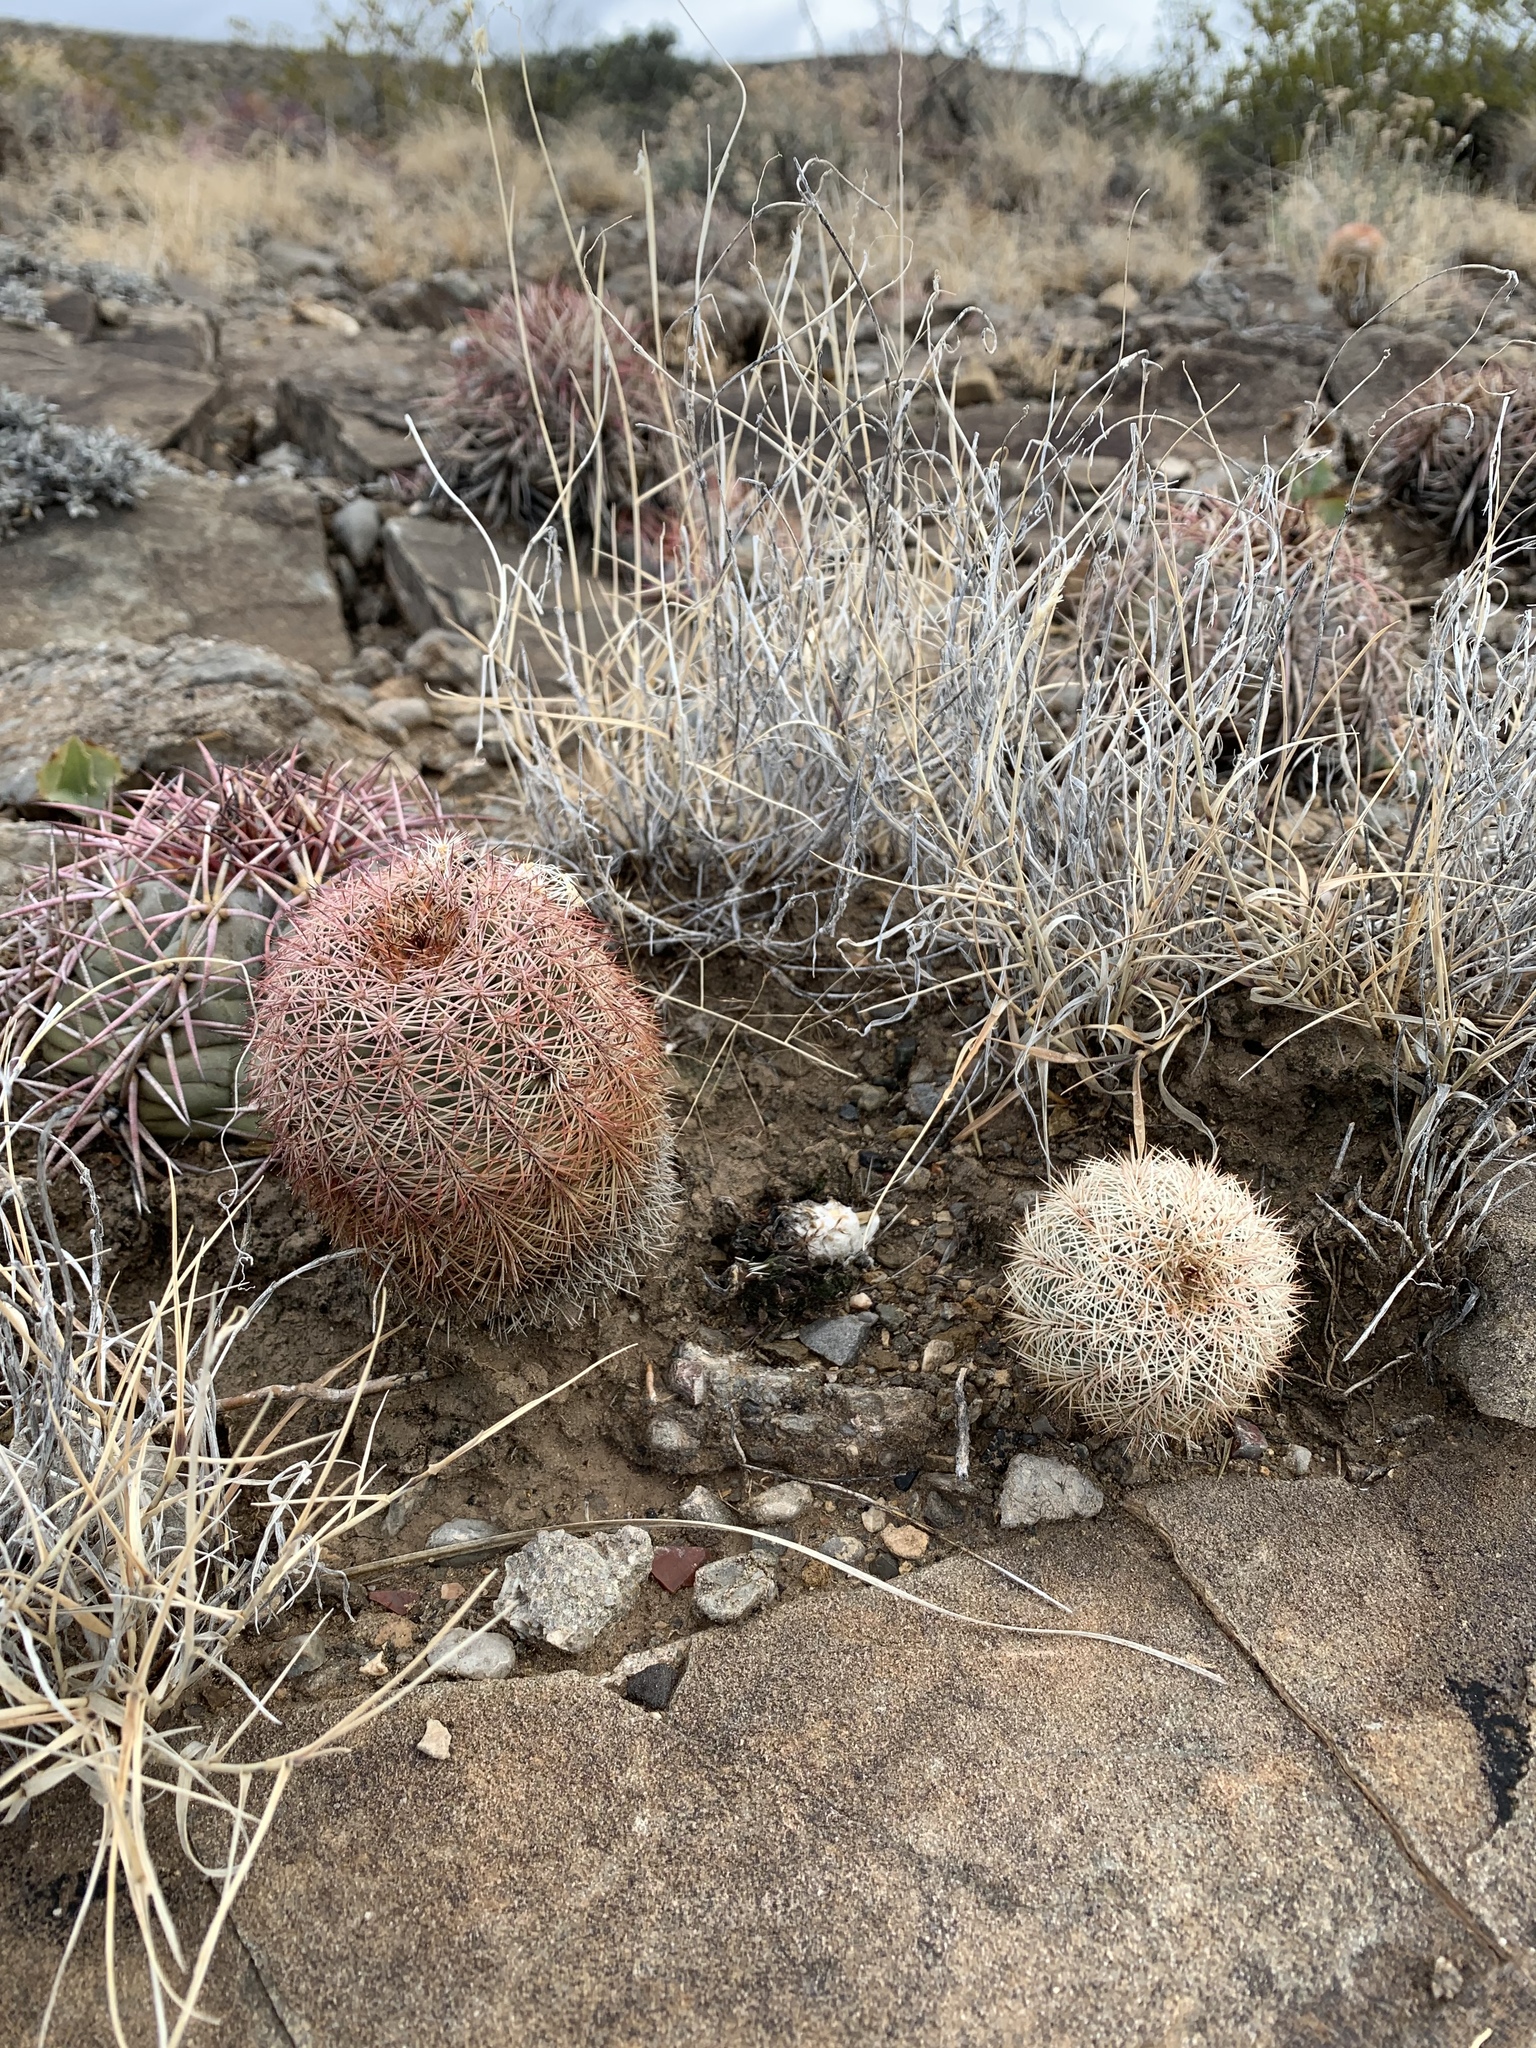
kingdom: Plantae
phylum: Tracheophyta
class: Magnoliopsida
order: Caryophyllales
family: Cactaceae
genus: Echinocereus
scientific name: Echinocereus dasyacanthus
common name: Spiny hedgehog cactus
